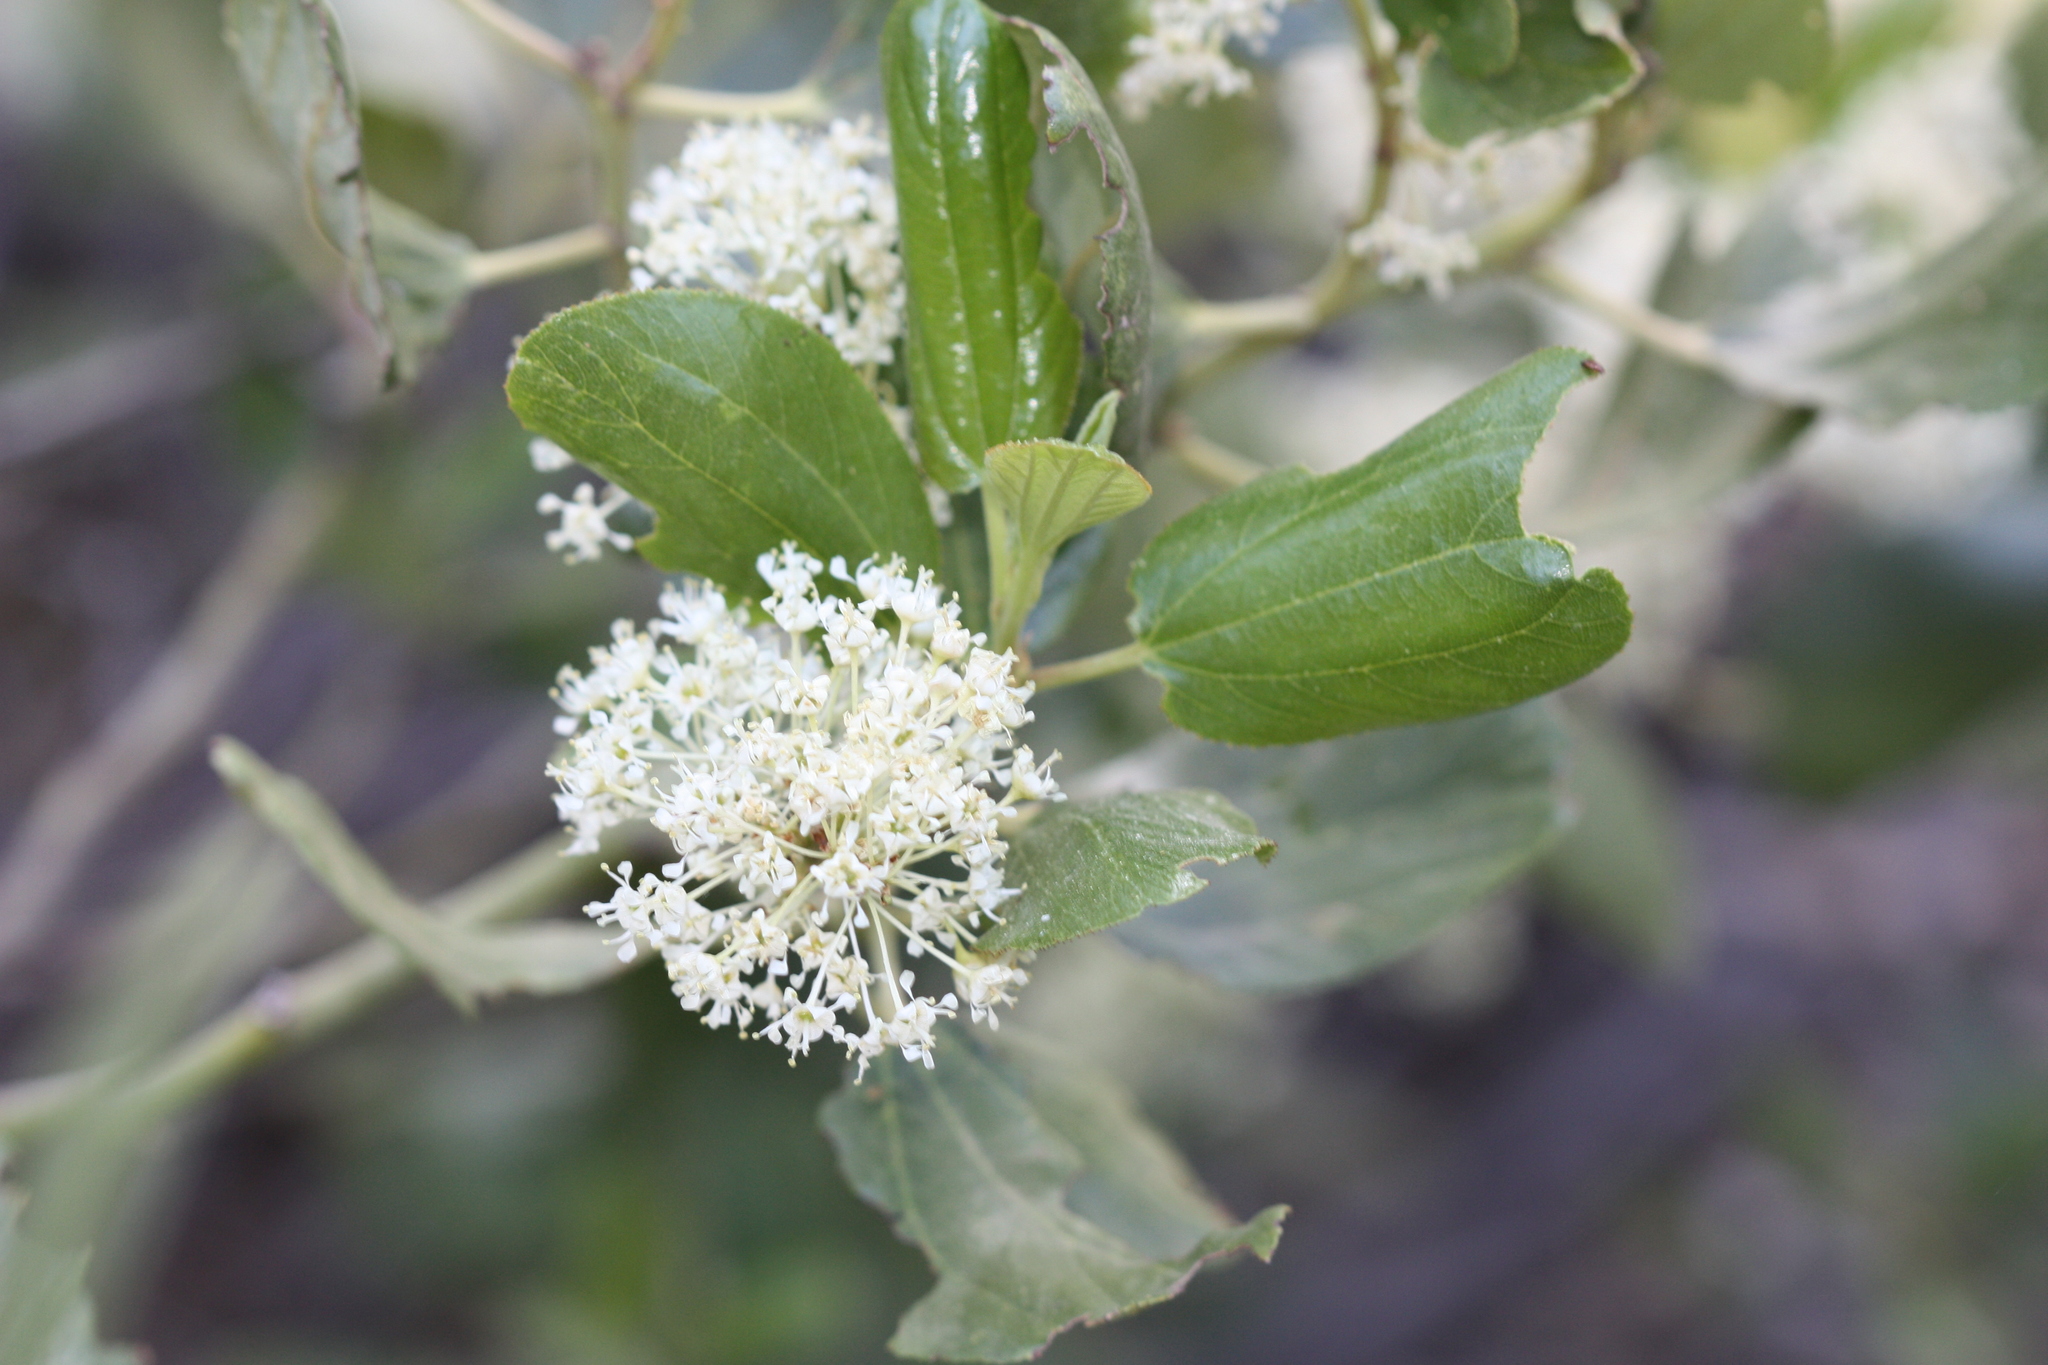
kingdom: Plantae
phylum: Tracheophyta
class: Magnoliopsida
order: Rosales
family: Rhamnaceae
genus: Ceanothus
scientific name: Ceanothus velutinus
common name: Snowbrush
